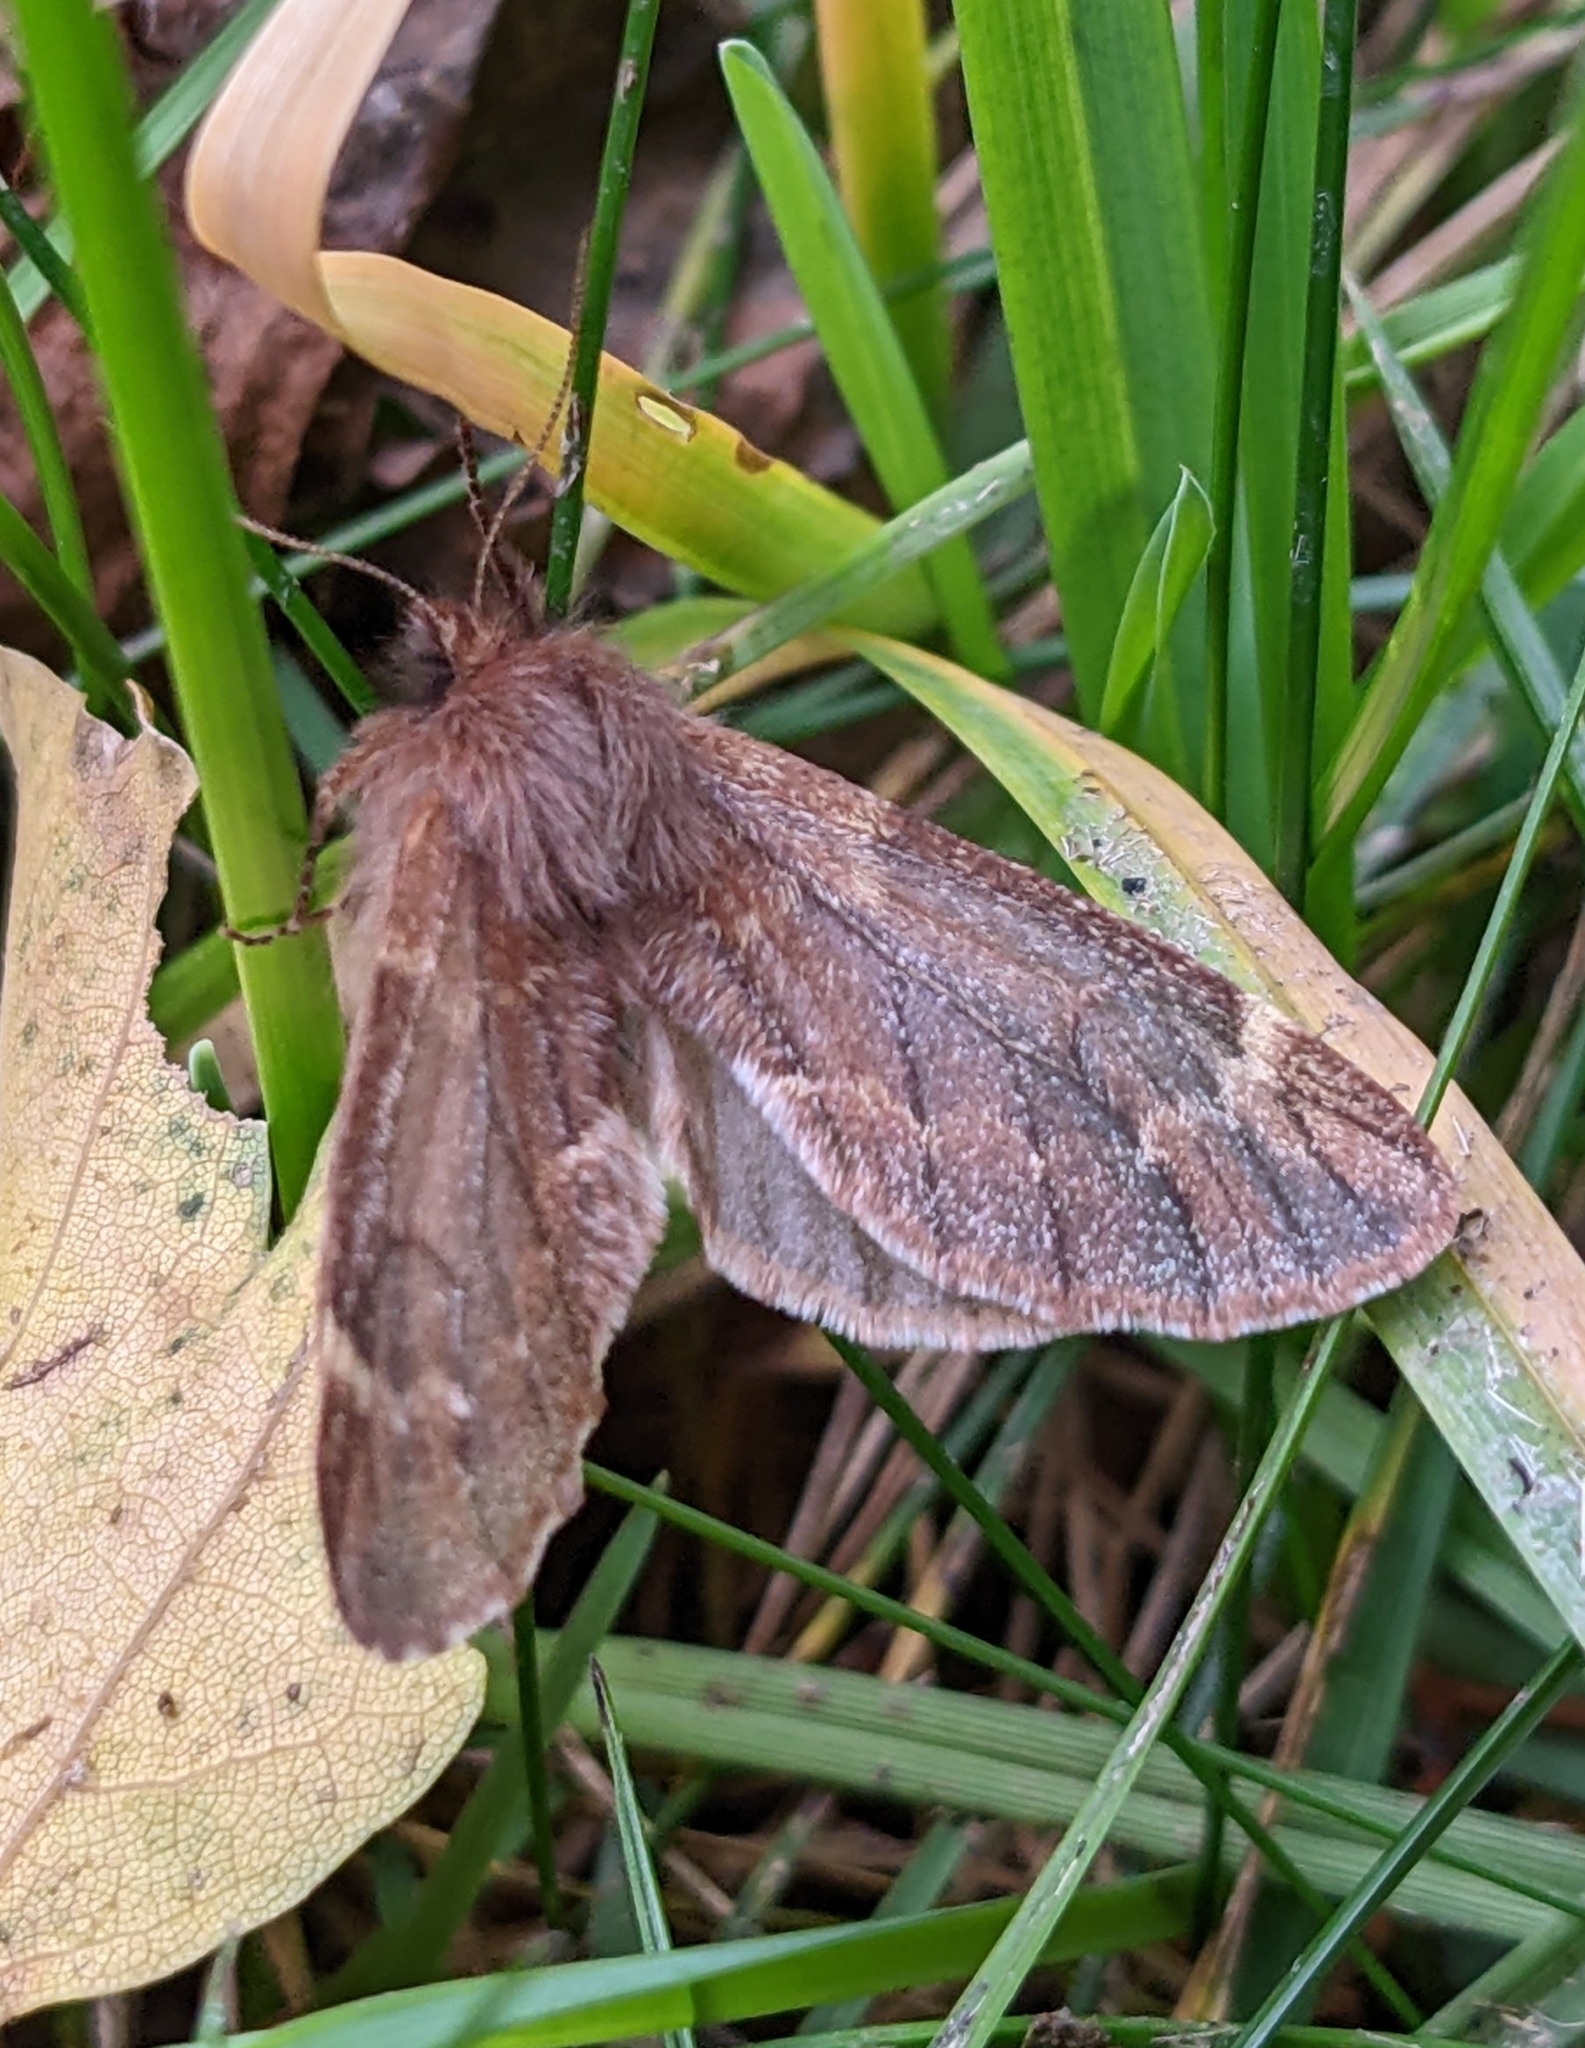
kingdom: Animalia
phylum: Arthropoda
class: Insecta
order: Lepidoptera
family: Notodontidae
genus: Ptilophora
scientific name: Ptilophora plumigera
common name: Plumed prominent
